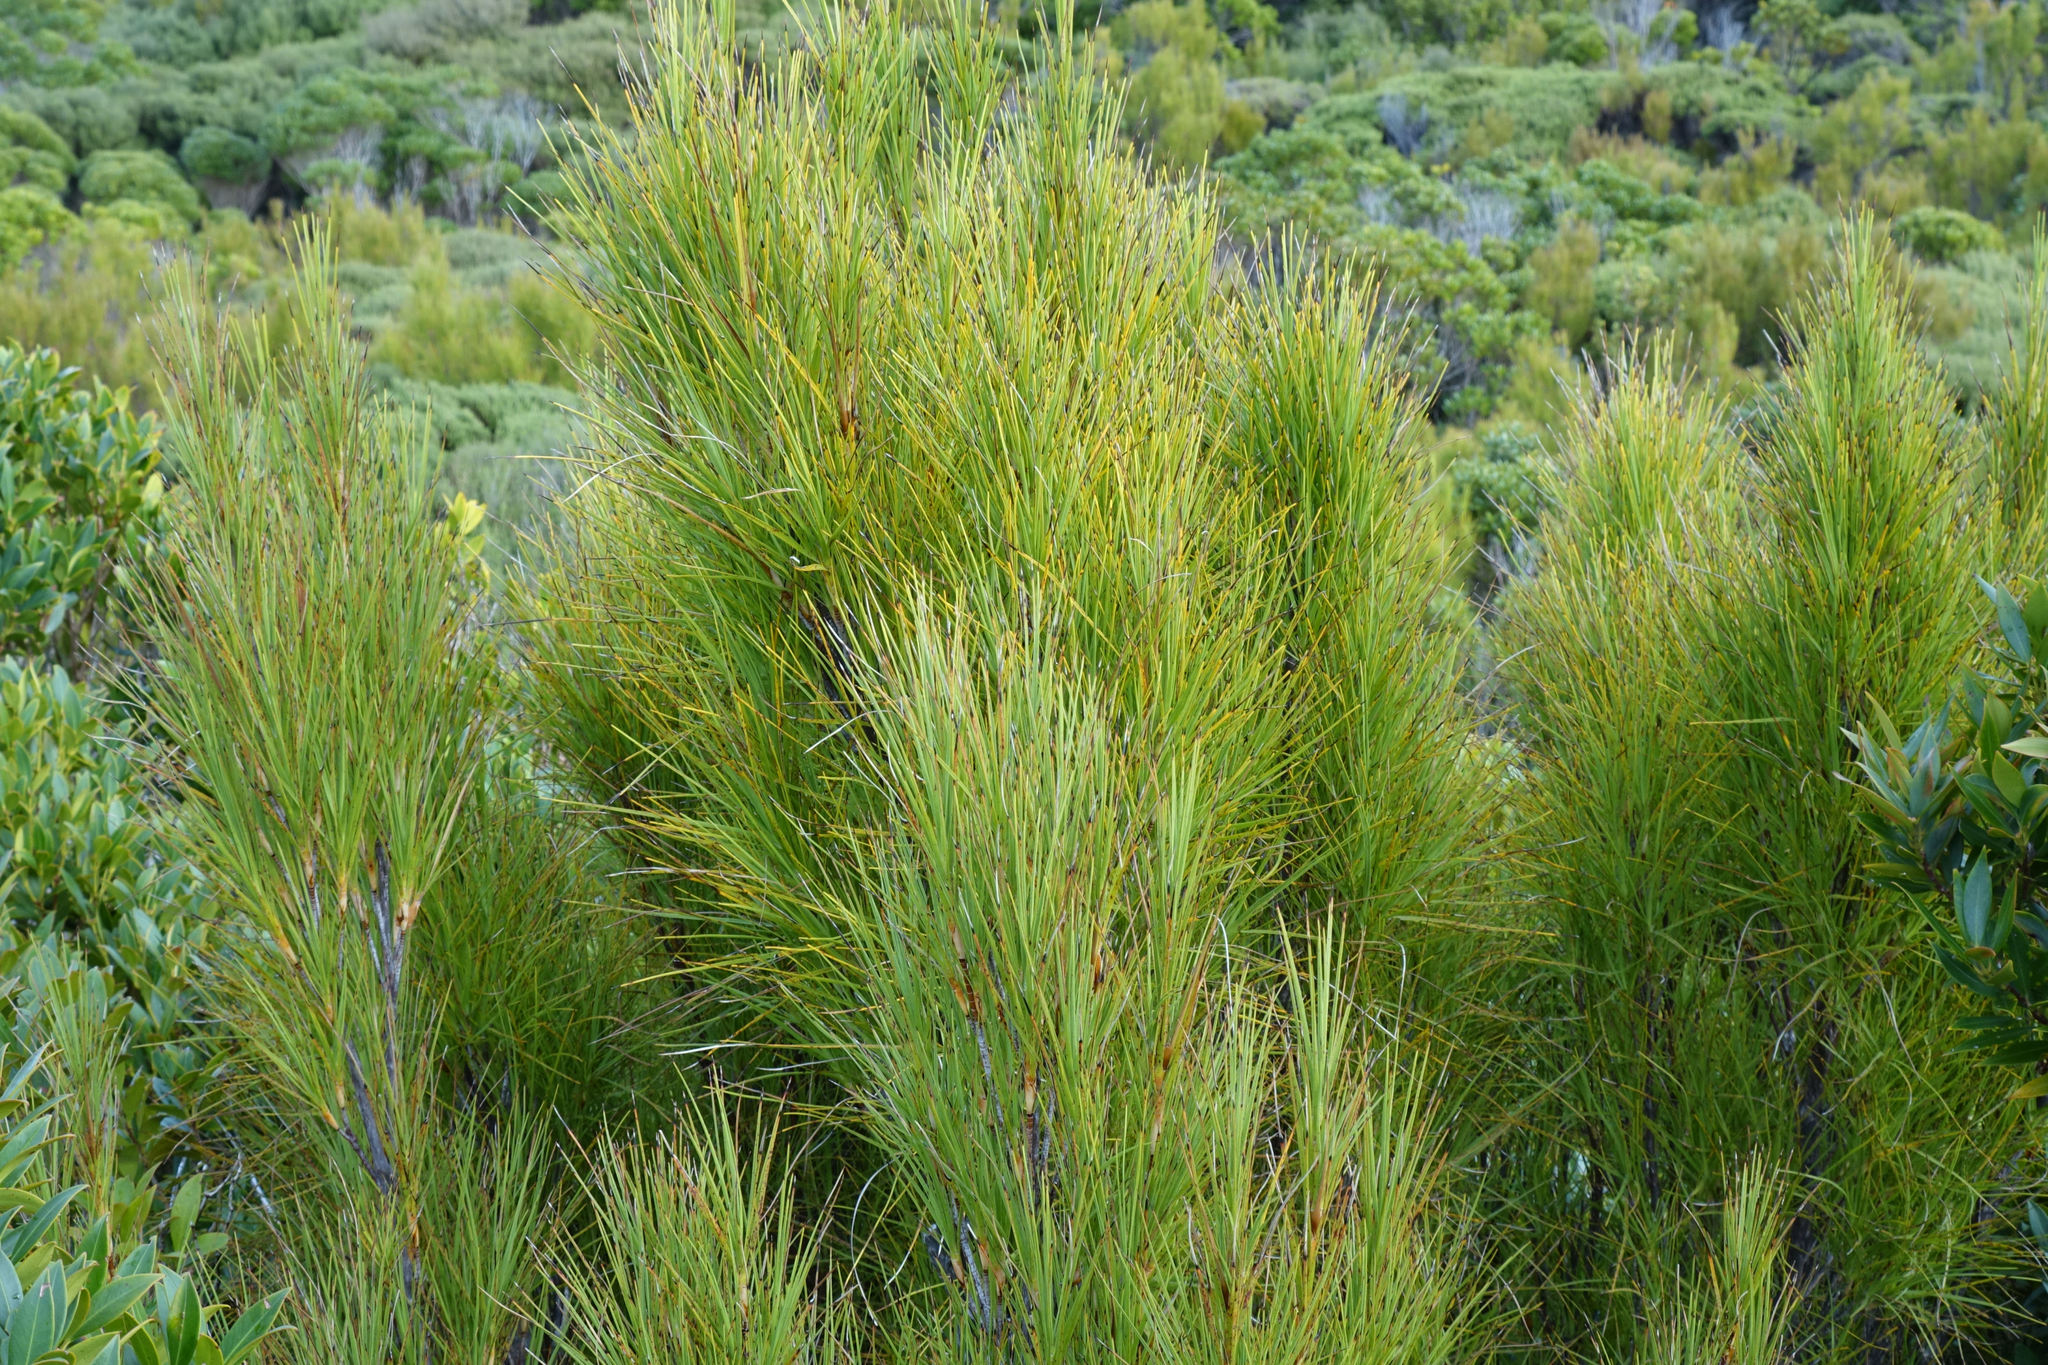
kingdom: Plantae
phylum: Tracheophyta
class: Magnoliopsida
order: Ericales
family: Ericaceae
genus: Dracophyllum
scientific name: Dracophyllum longifolium
